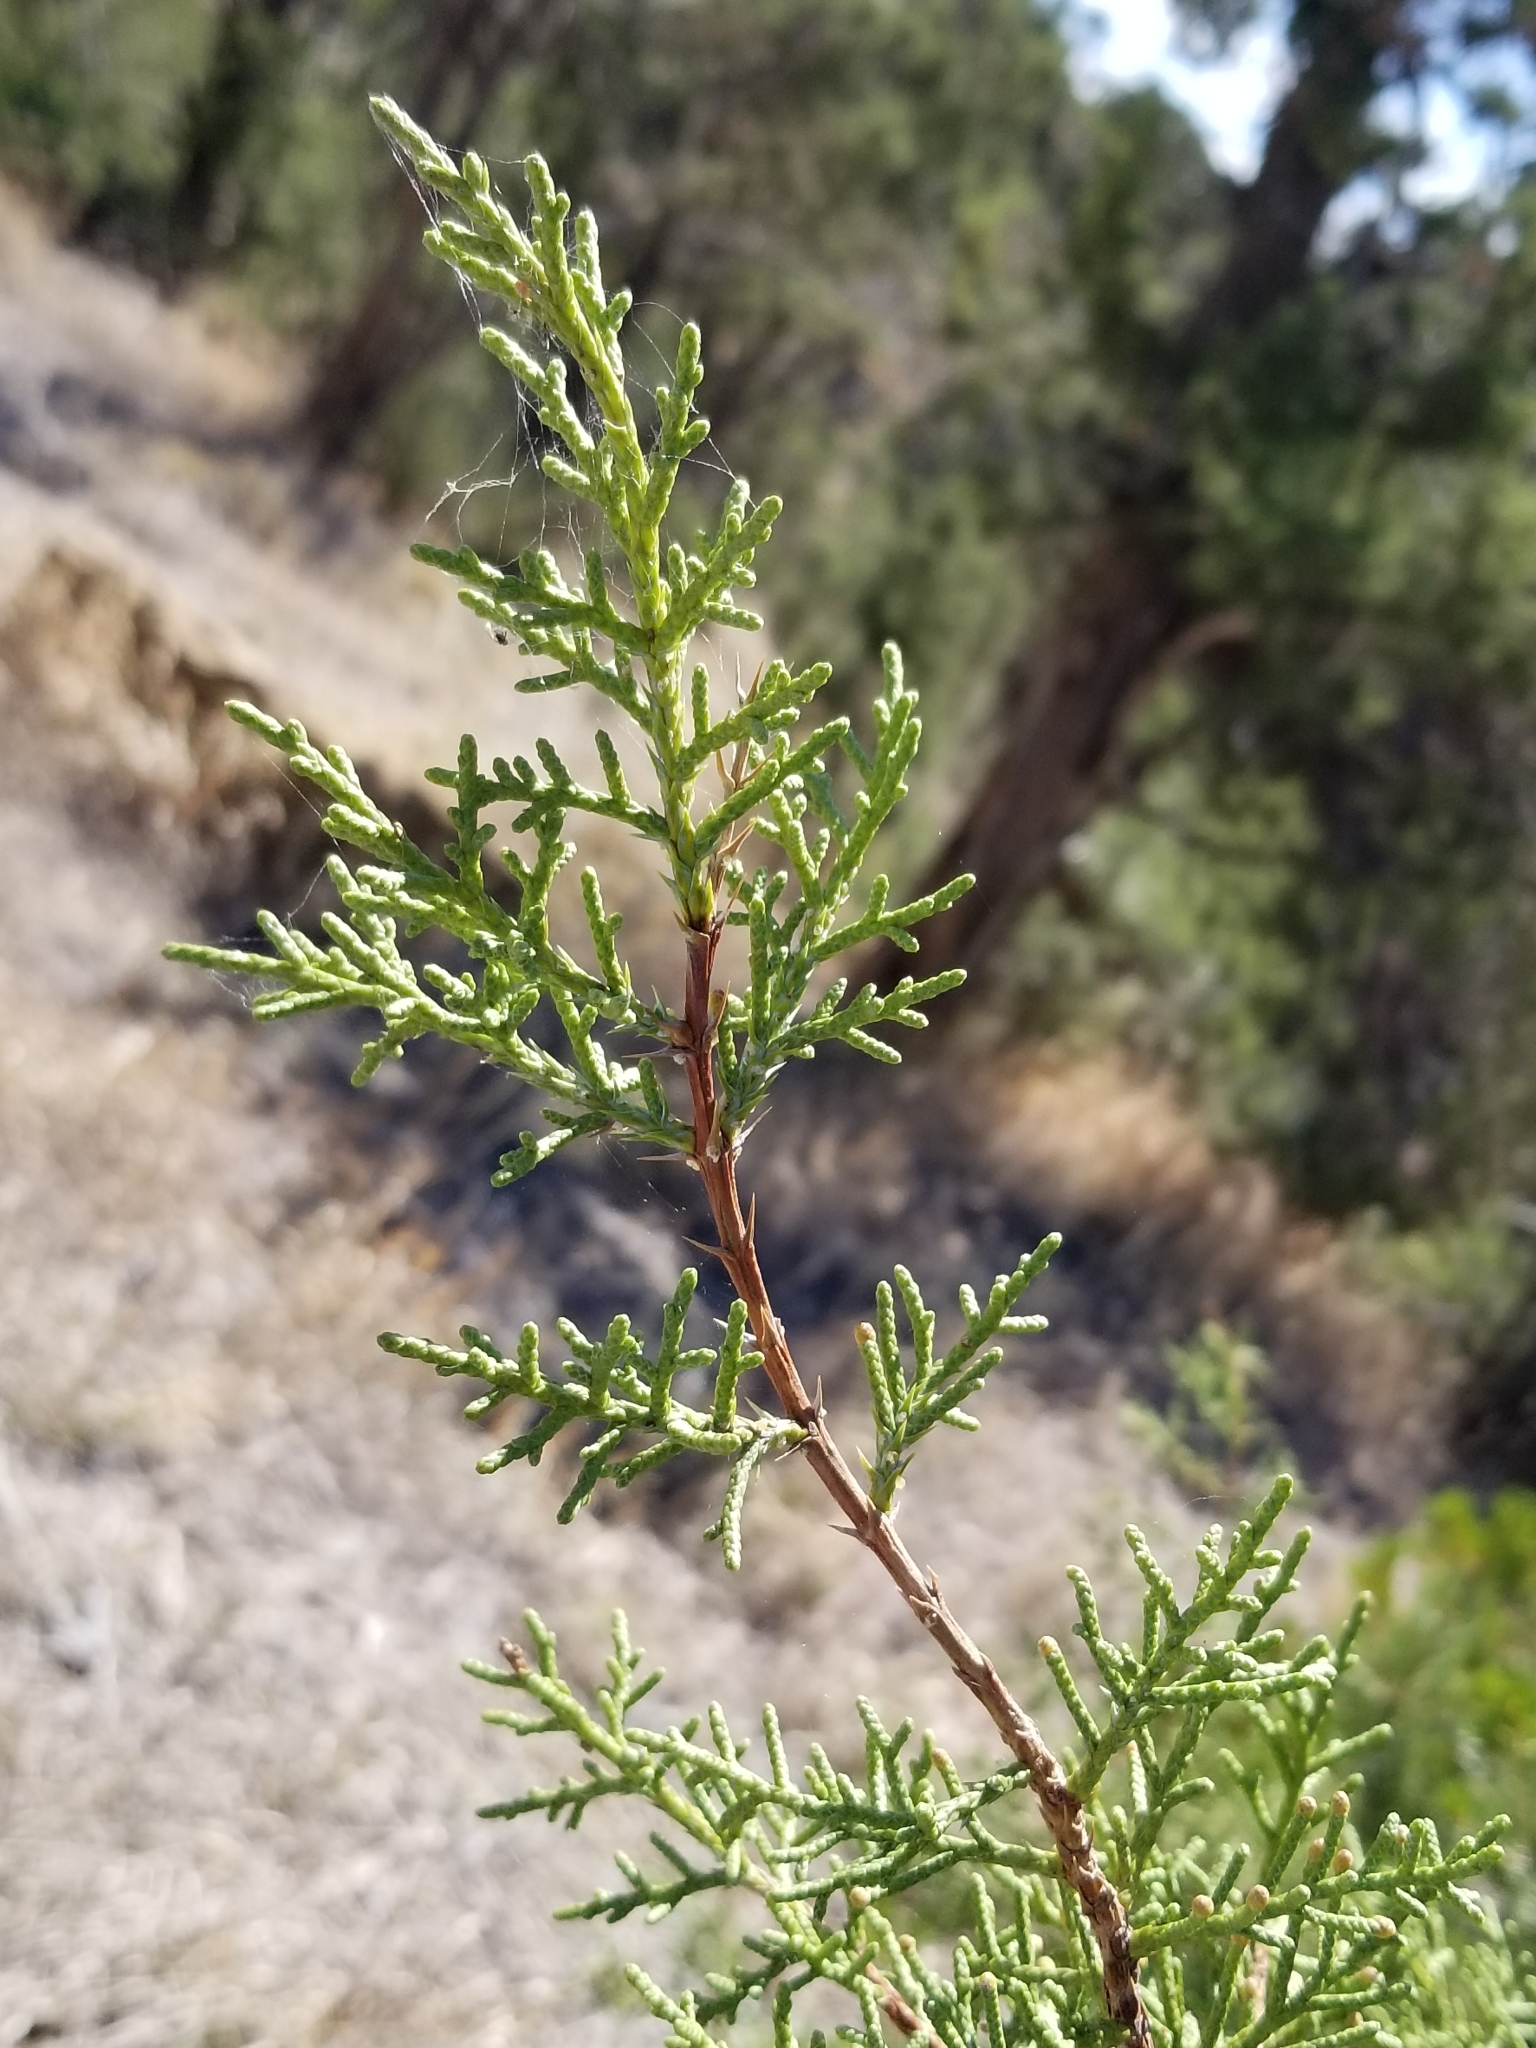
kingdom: Plantae
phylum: Tracheophyta
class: Pinopsida
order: Pinales
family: Cupressaceae
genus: Juniperus
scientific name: Juniperus osteosperma
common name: Utah juniper
